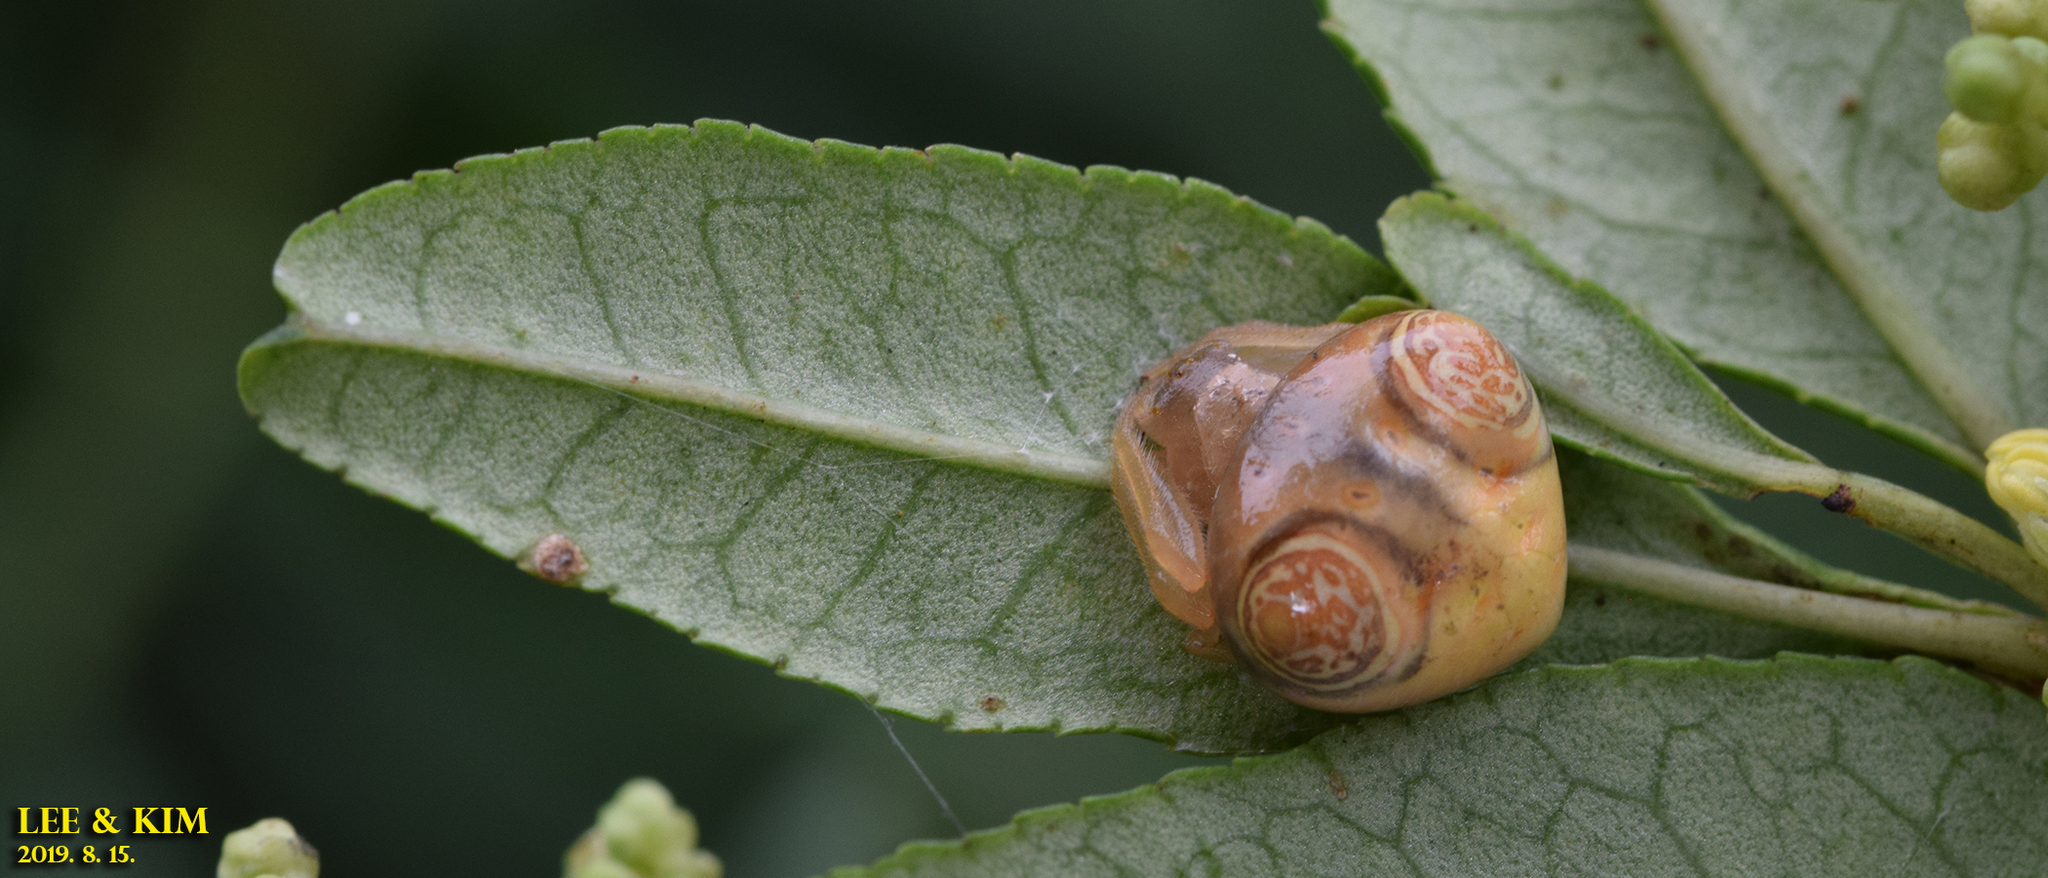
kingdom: Animalia
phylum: Arthropoda
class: Arachnida
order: Araneae
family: Araneidae
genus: Cyrtarachne
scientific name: Cyrtarachne inaequalis
